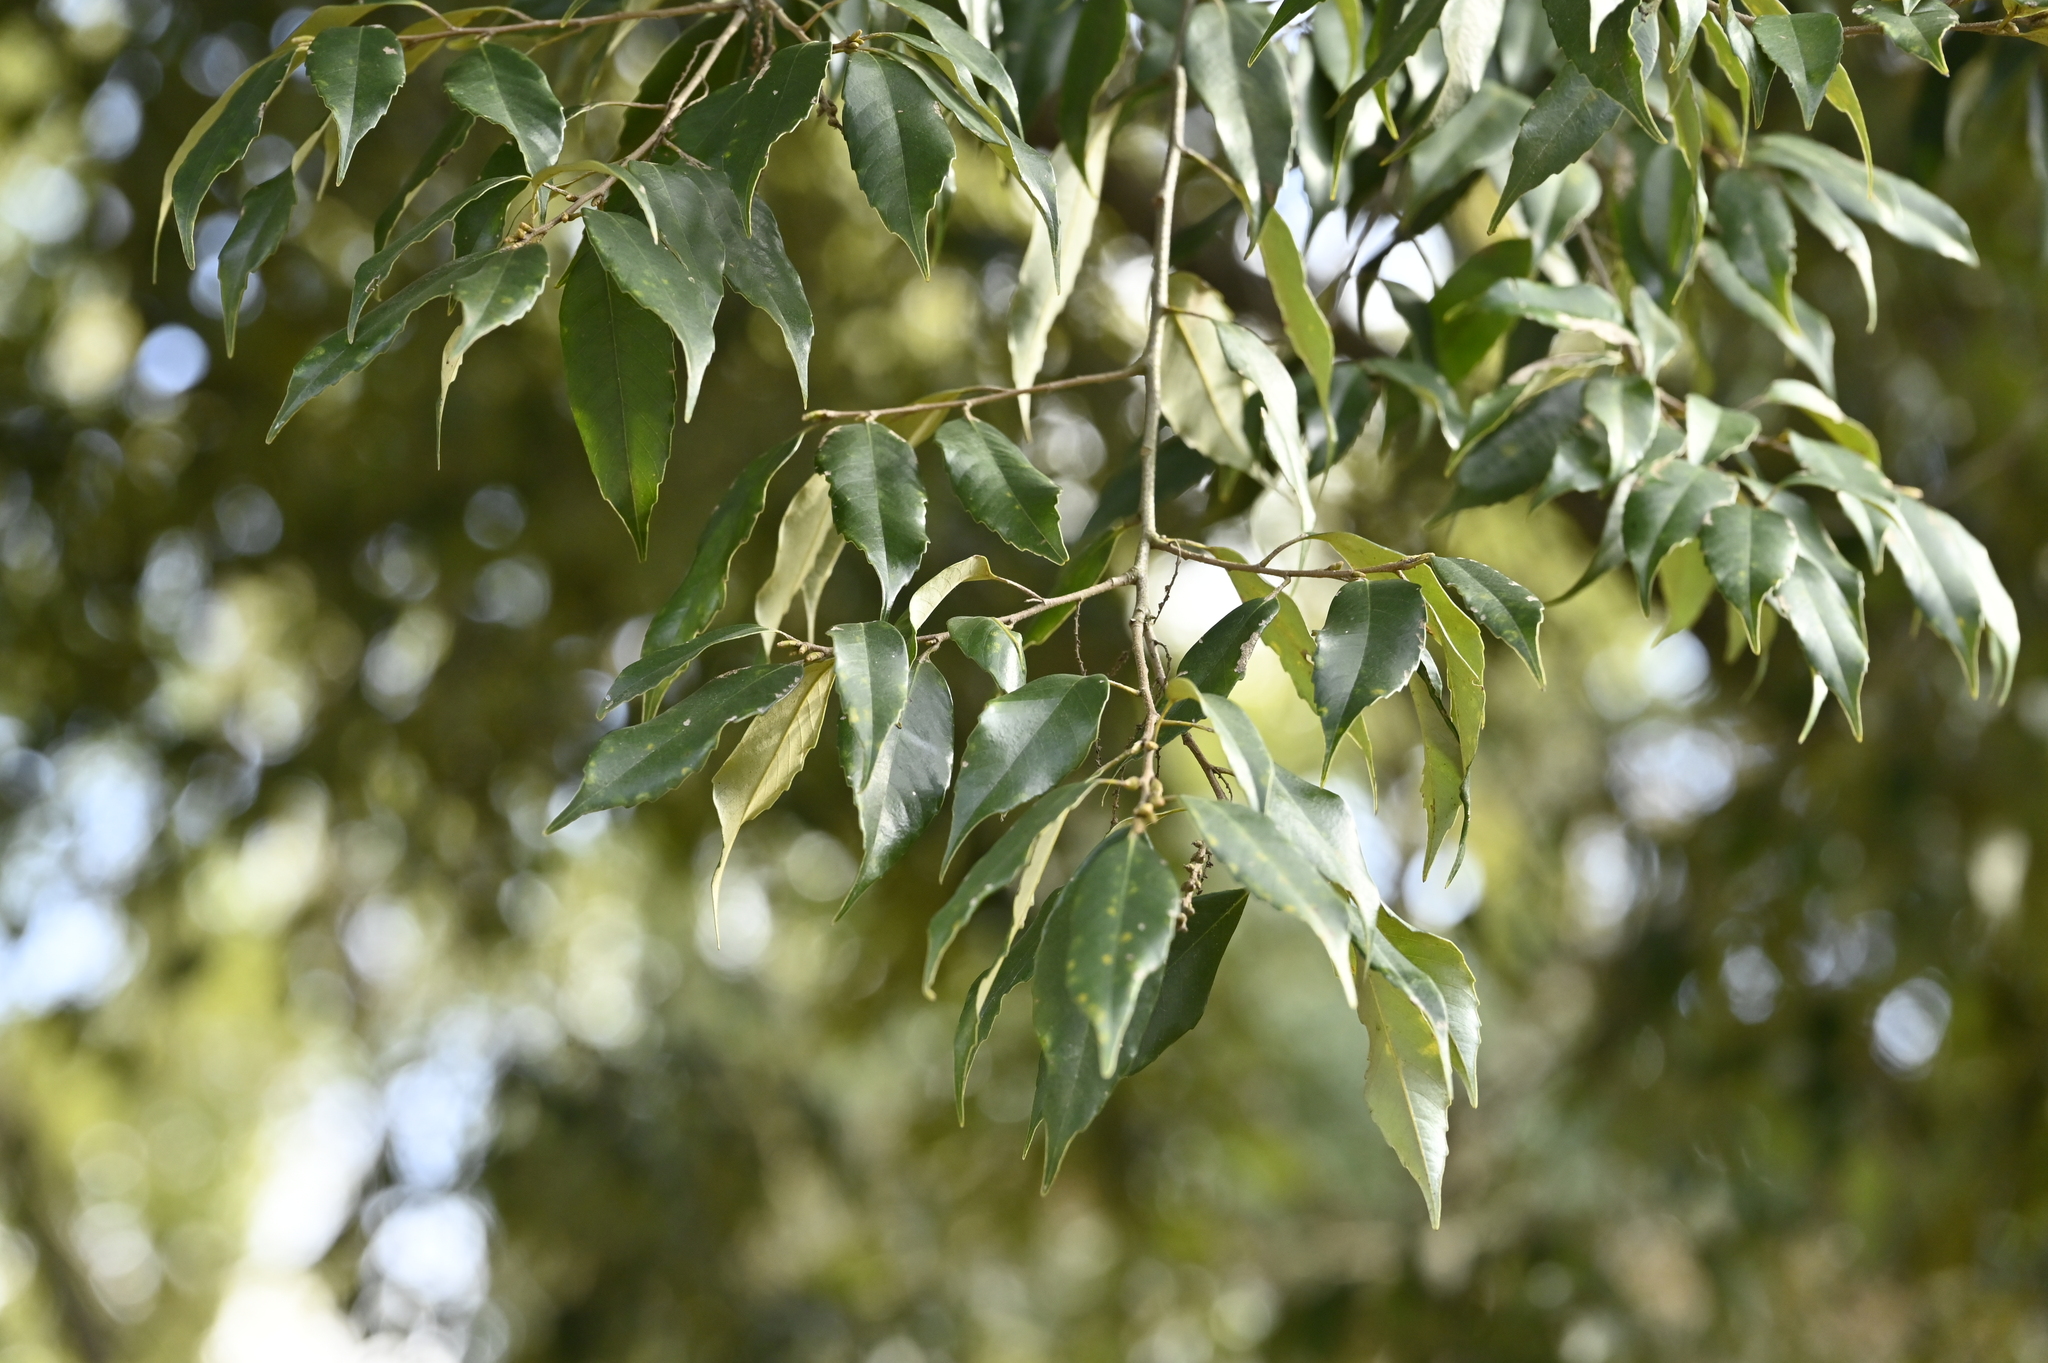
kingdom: Plantae
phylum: Tracheophyta
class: Magnoliopsida
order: Fagales
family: Fagaceae
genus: Castanopsis
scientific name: Castanopsis carlesii
